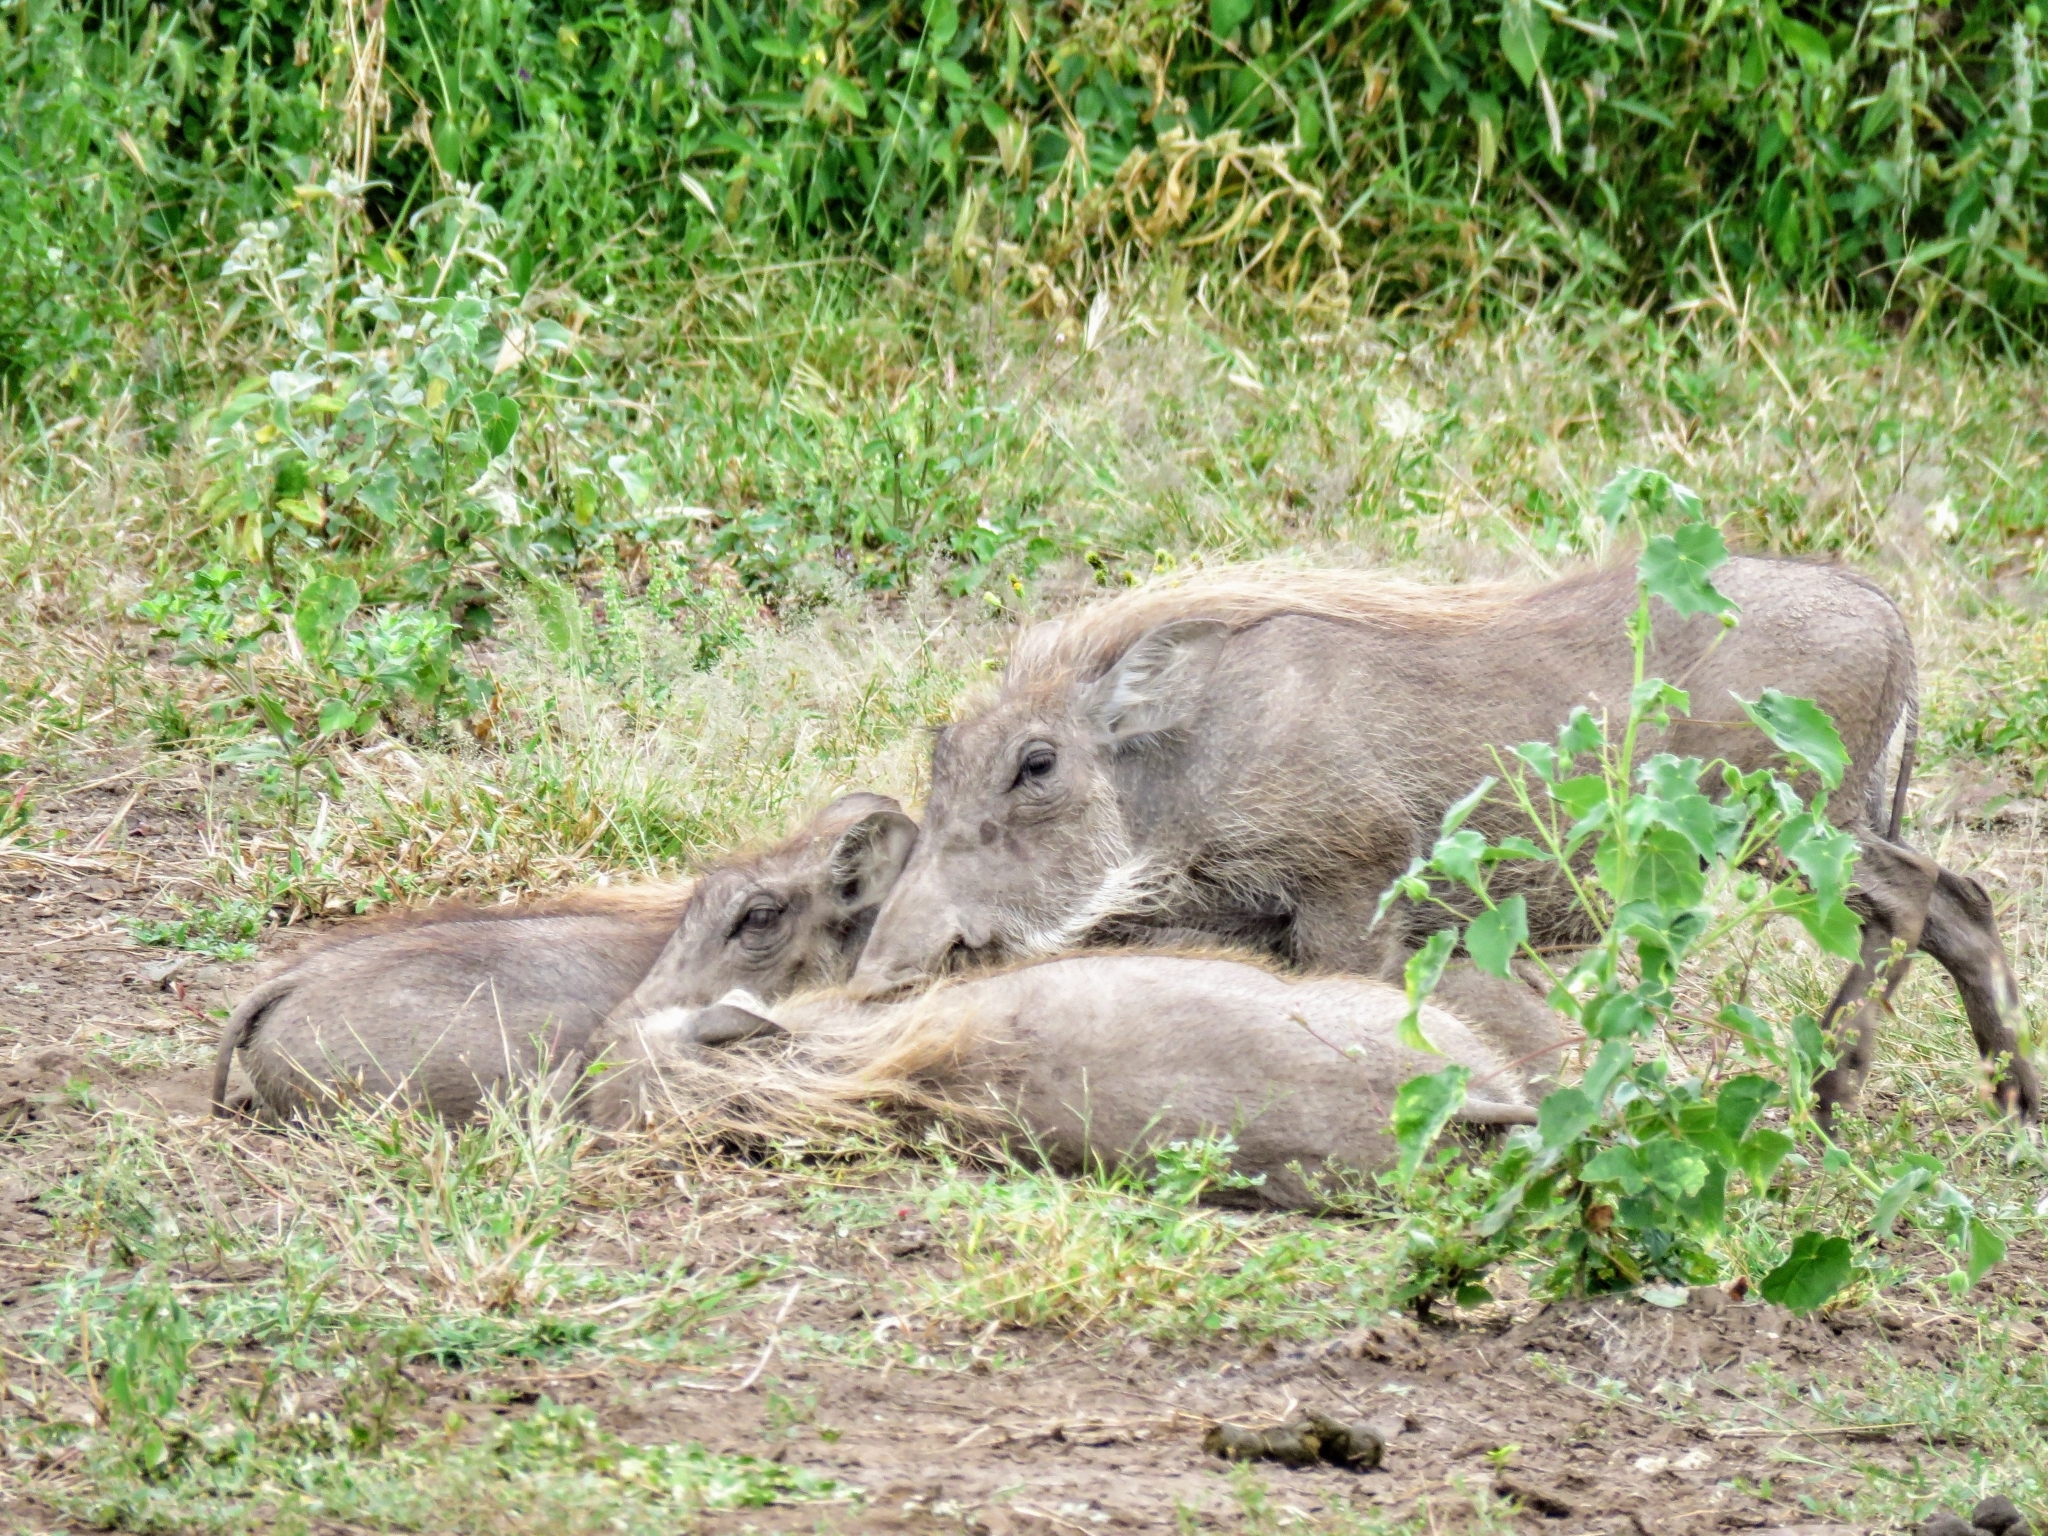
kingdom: Animalia
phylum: Chordata
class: Mammalia
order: Artiodactyla
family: Suidae
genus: Phacochoerus
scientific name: Phacochoerus africanus
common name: Common warthog
